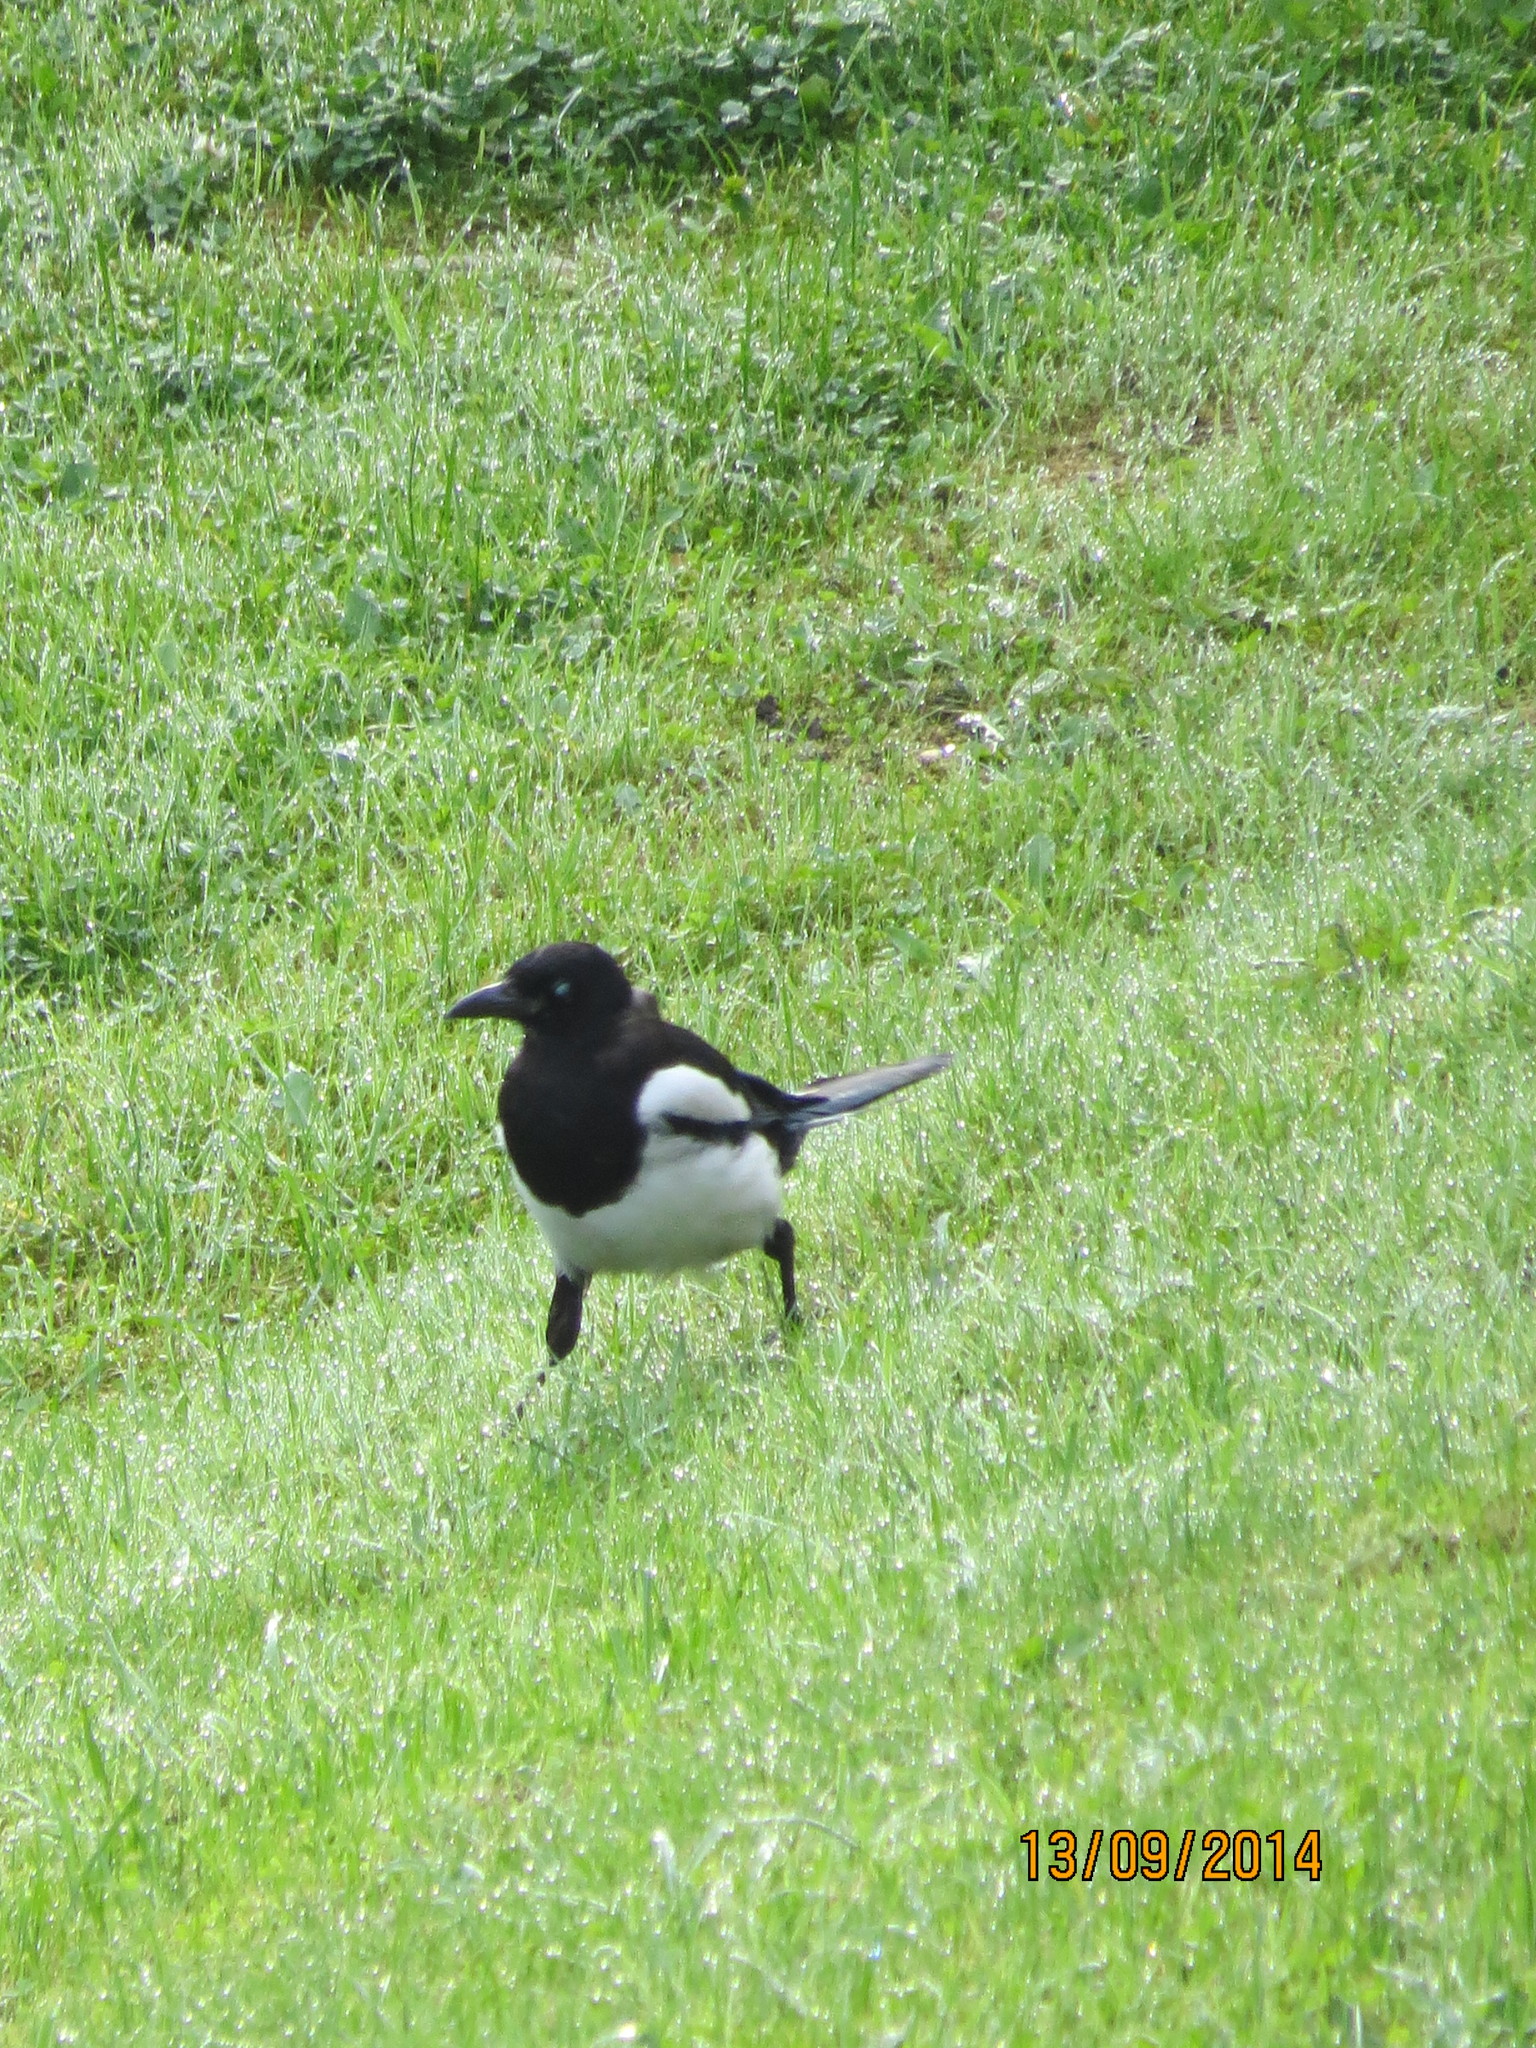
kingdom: Animalia
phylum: Chordata
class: Aves
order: Passeriformes
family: Corvidae
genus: Pica
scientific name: Pica pica
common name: Eurasian magpie
